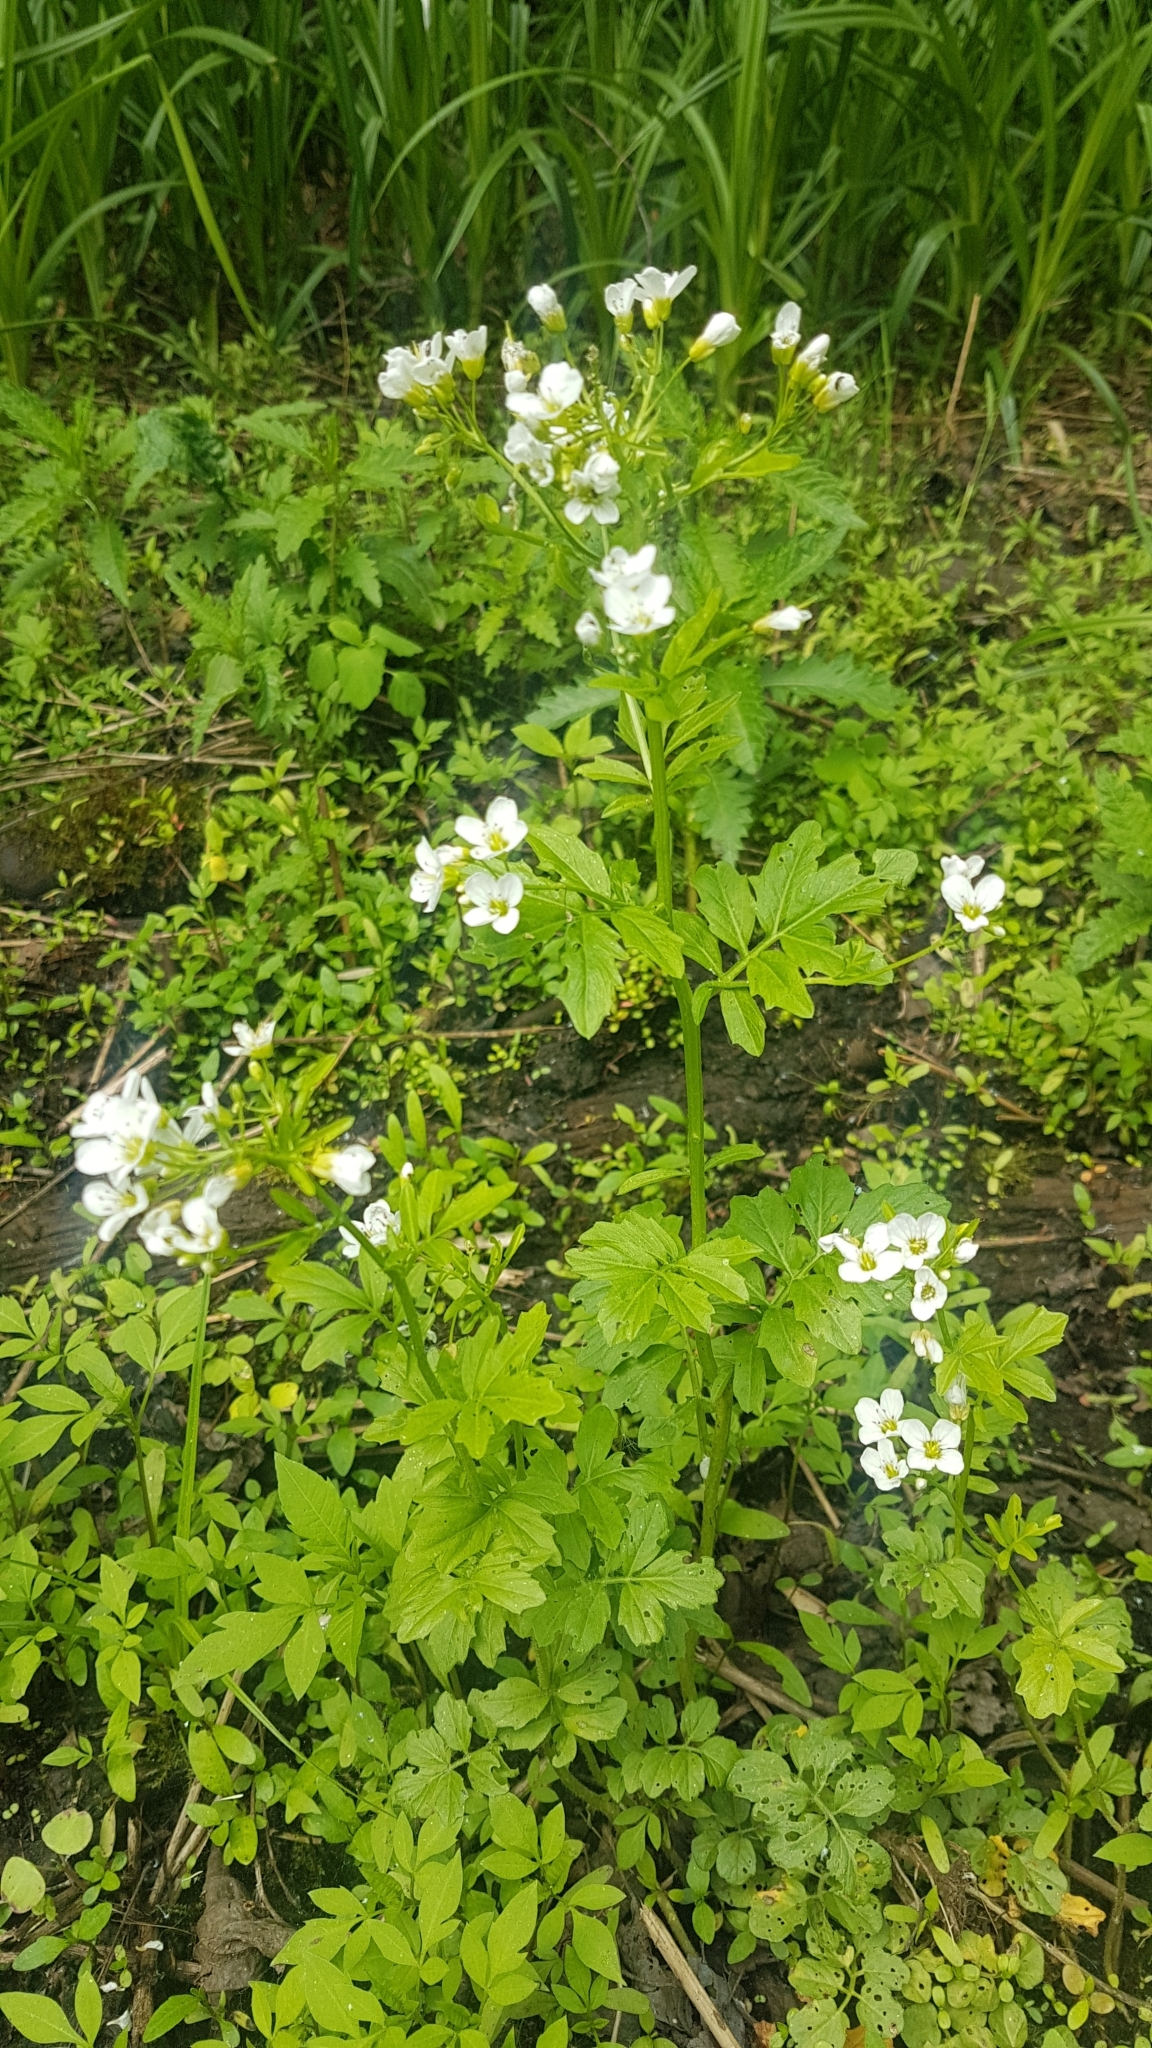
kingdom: Plantae
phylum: Tracheophyta
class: Magnoliopsida
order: Brassicales
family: Brassicaceae
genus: Cardamine
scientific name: Cardamine amara
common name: Large bitter-cress
